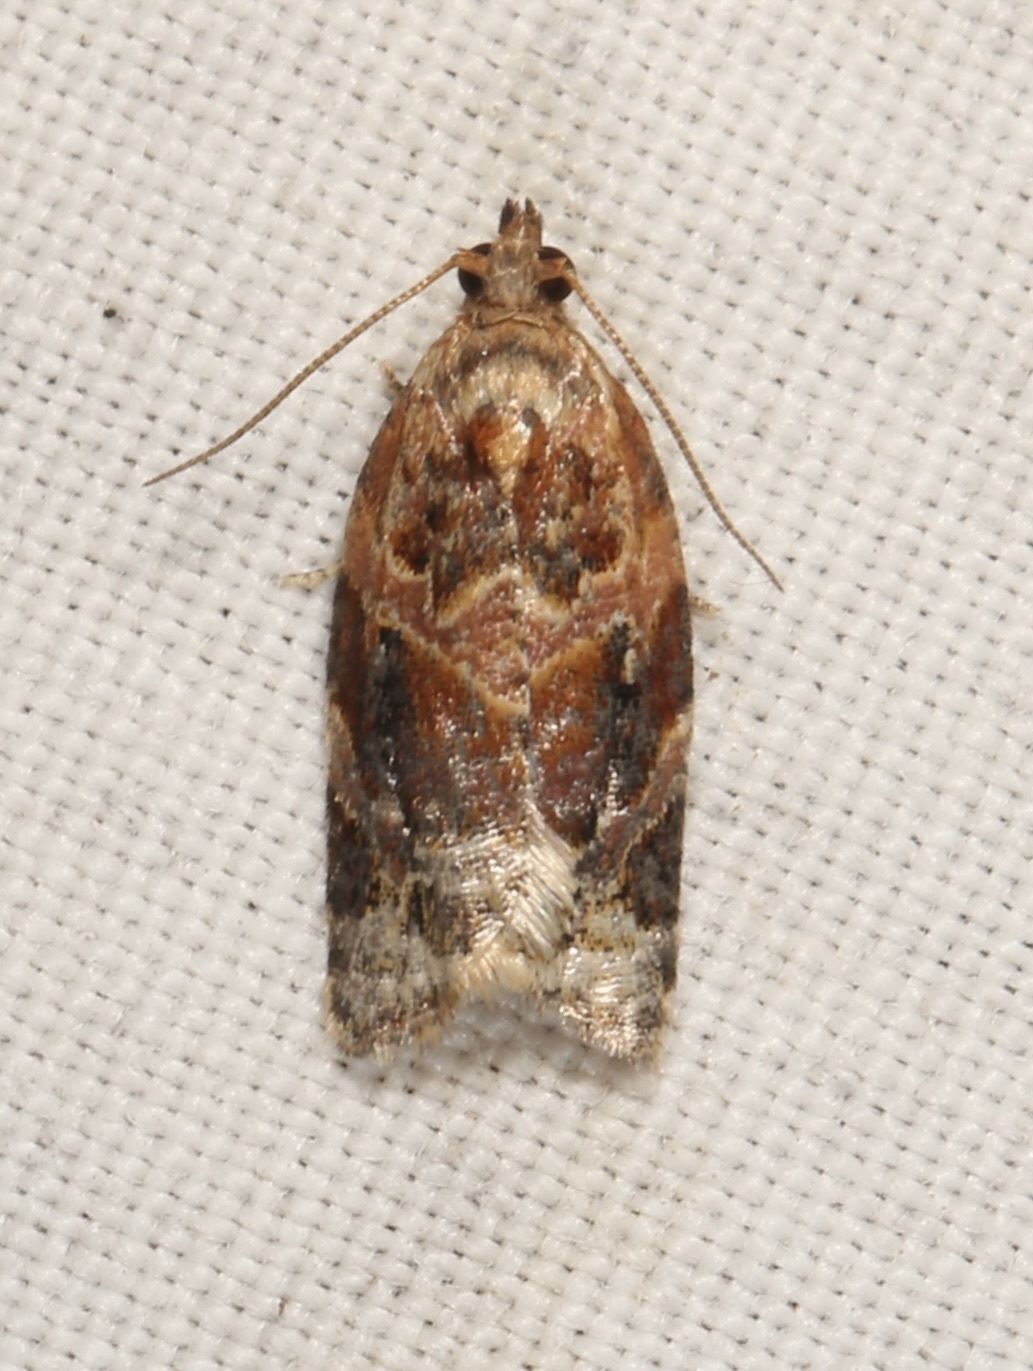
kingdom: Animalia
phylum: Arthropoda
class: Insecta
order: Lepidoptera
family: Tortricidae
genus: Argyrotaenia
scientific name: Argyrotaenia velutinana
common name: Red-banded leafroller moth
